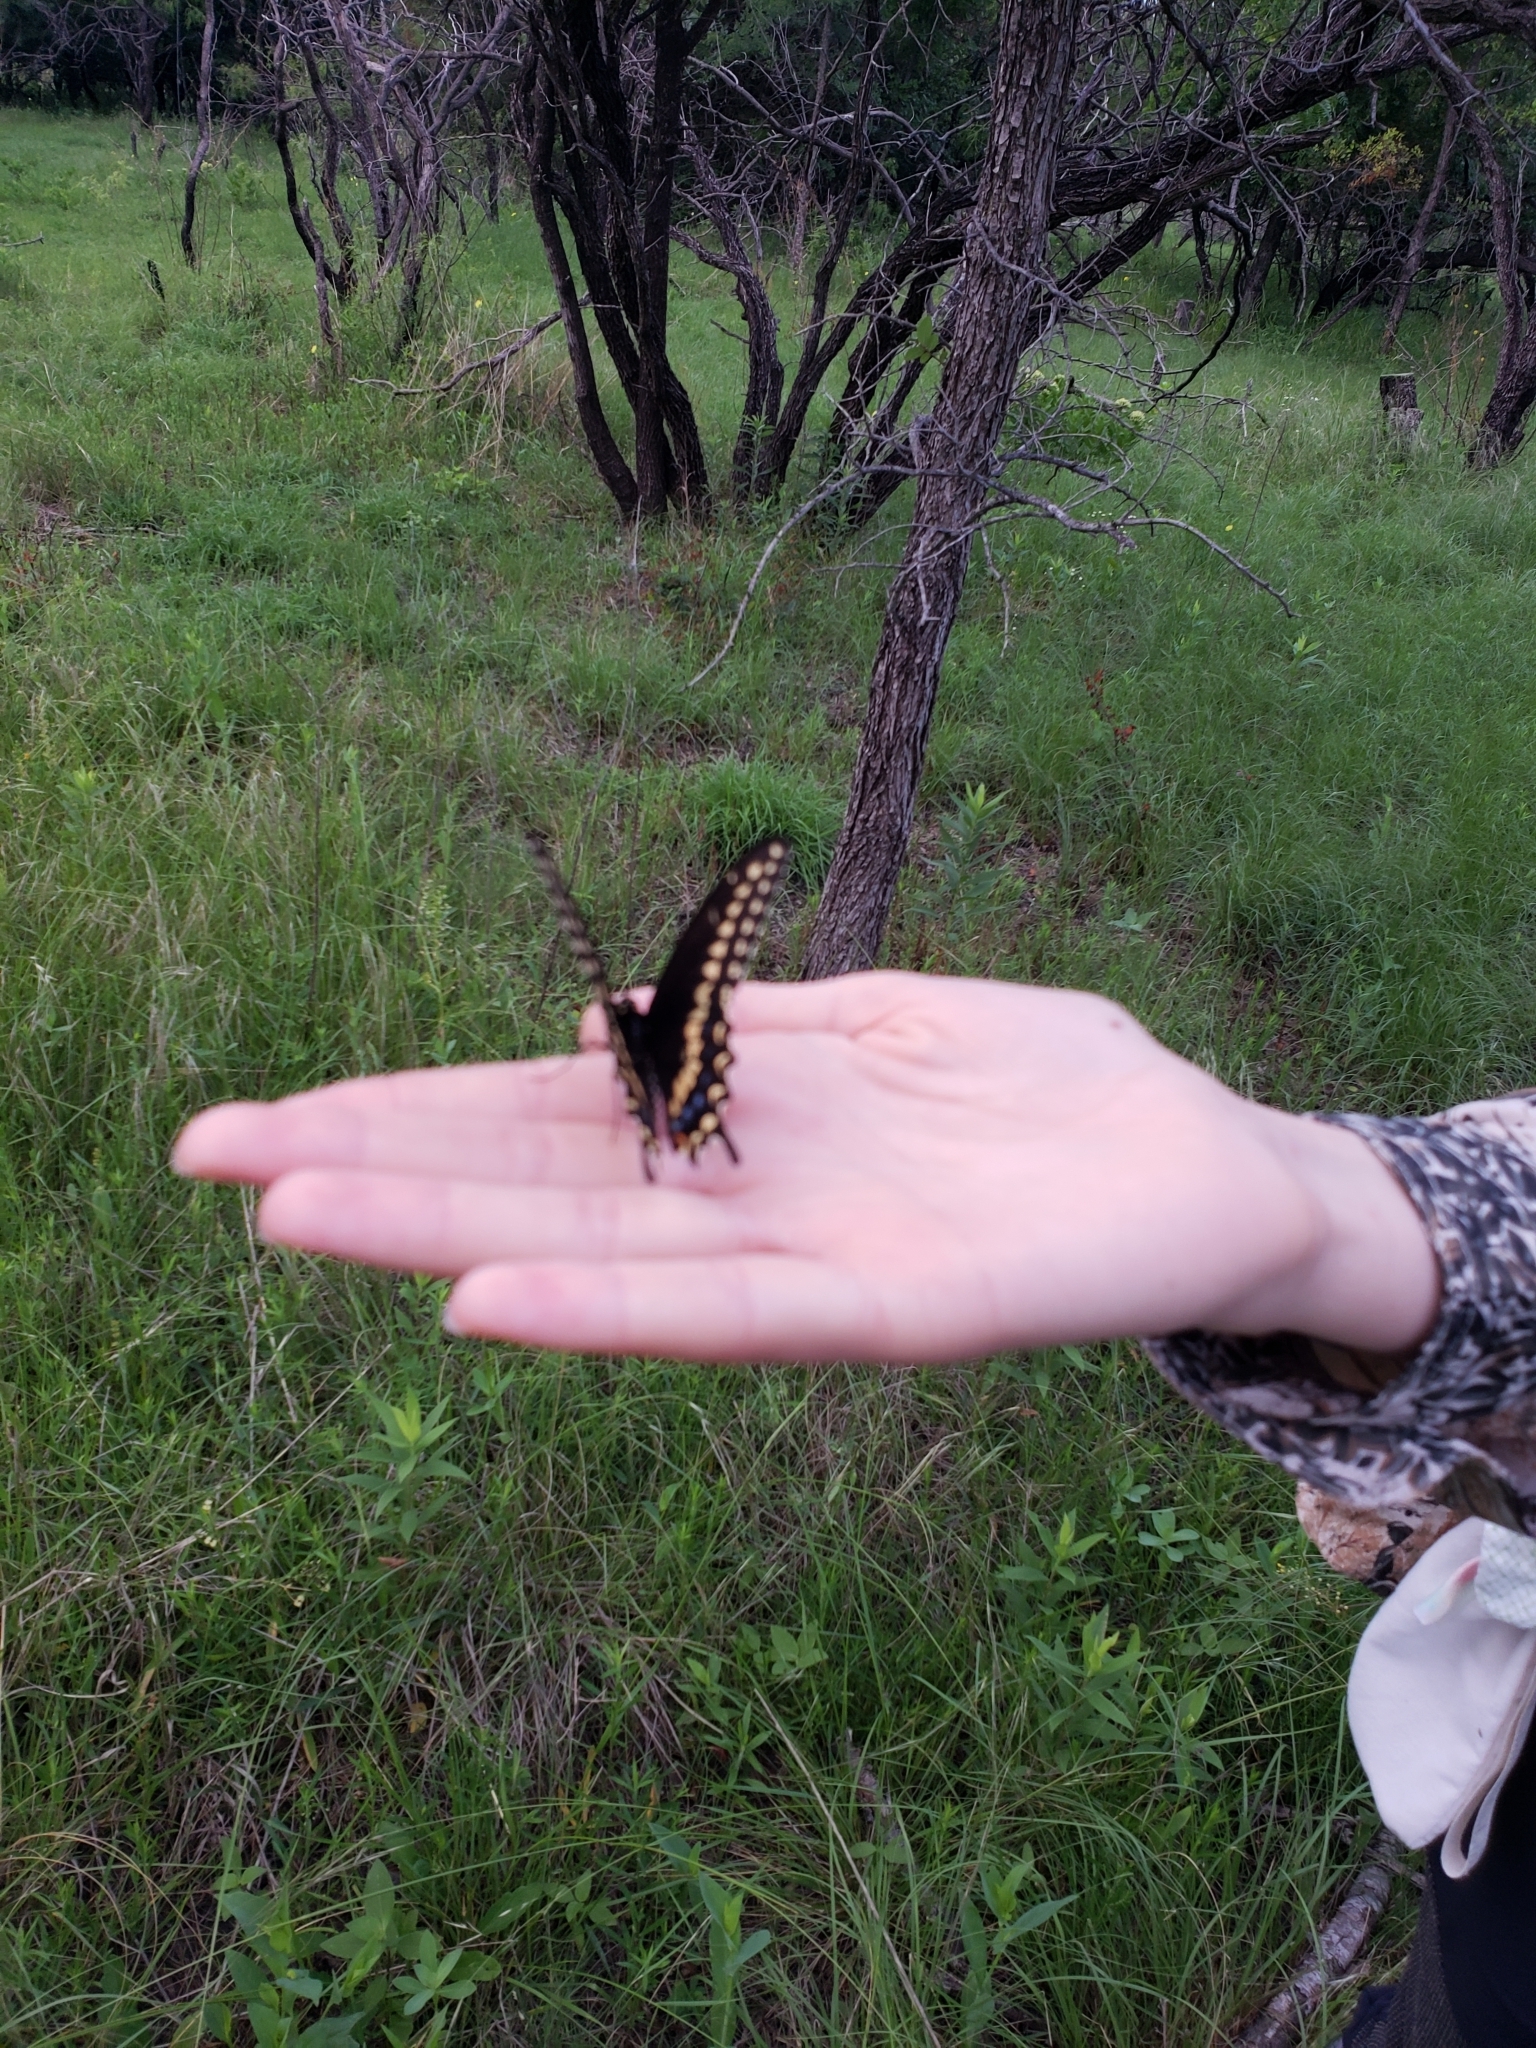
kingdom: Animalia
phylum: Arthropoda
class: Insecta
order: Lepidoptera
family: Papilionidae
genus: Papilio
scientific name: Papilio polyxenes
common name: Black swallowtail
